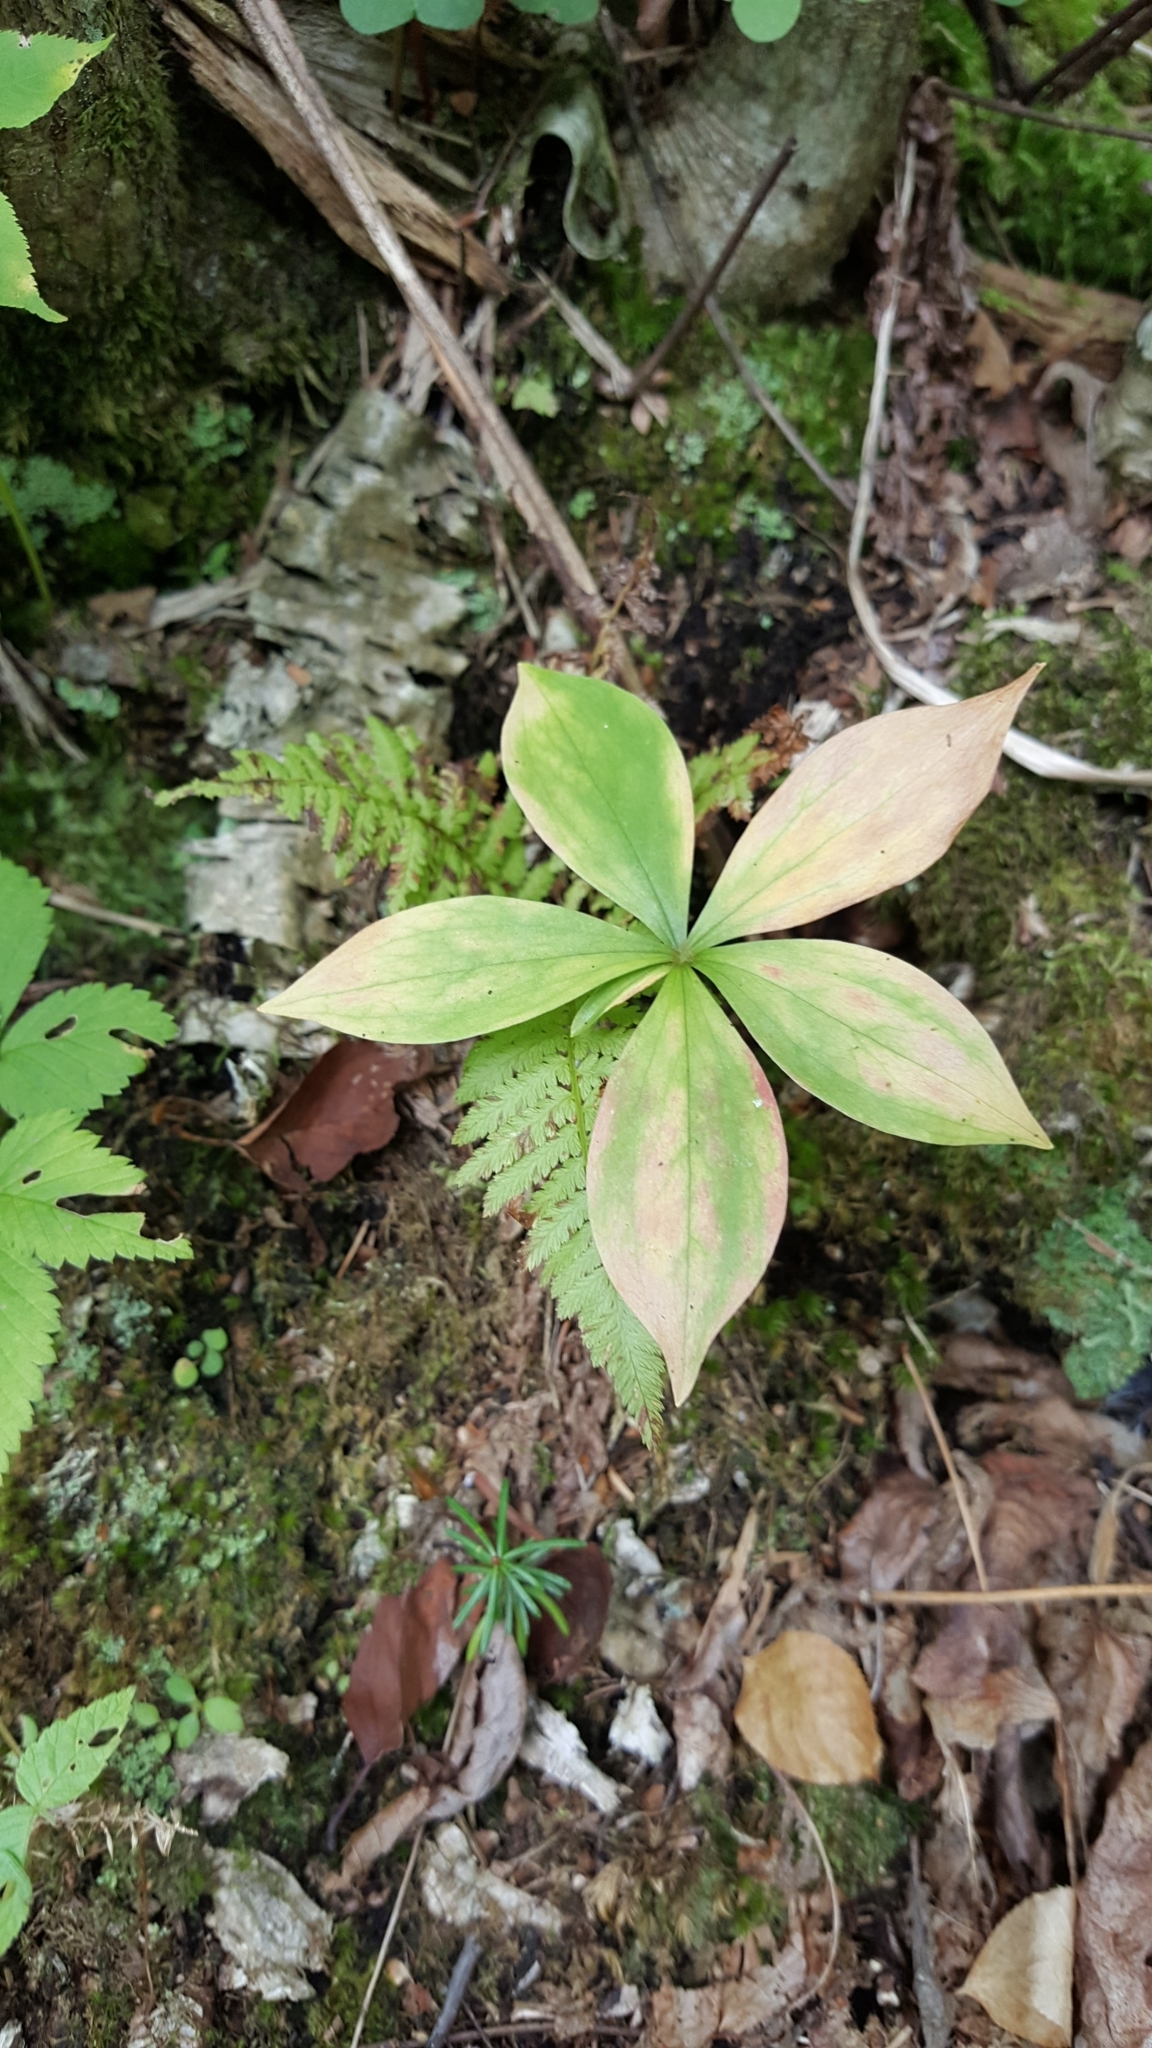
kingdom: Plantae
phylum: Tracheophyta
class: Magnoliopsida
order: Ericales
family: Primulaceae
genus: Lysimachia
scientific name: Lysimachia borealis
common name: American starflower
